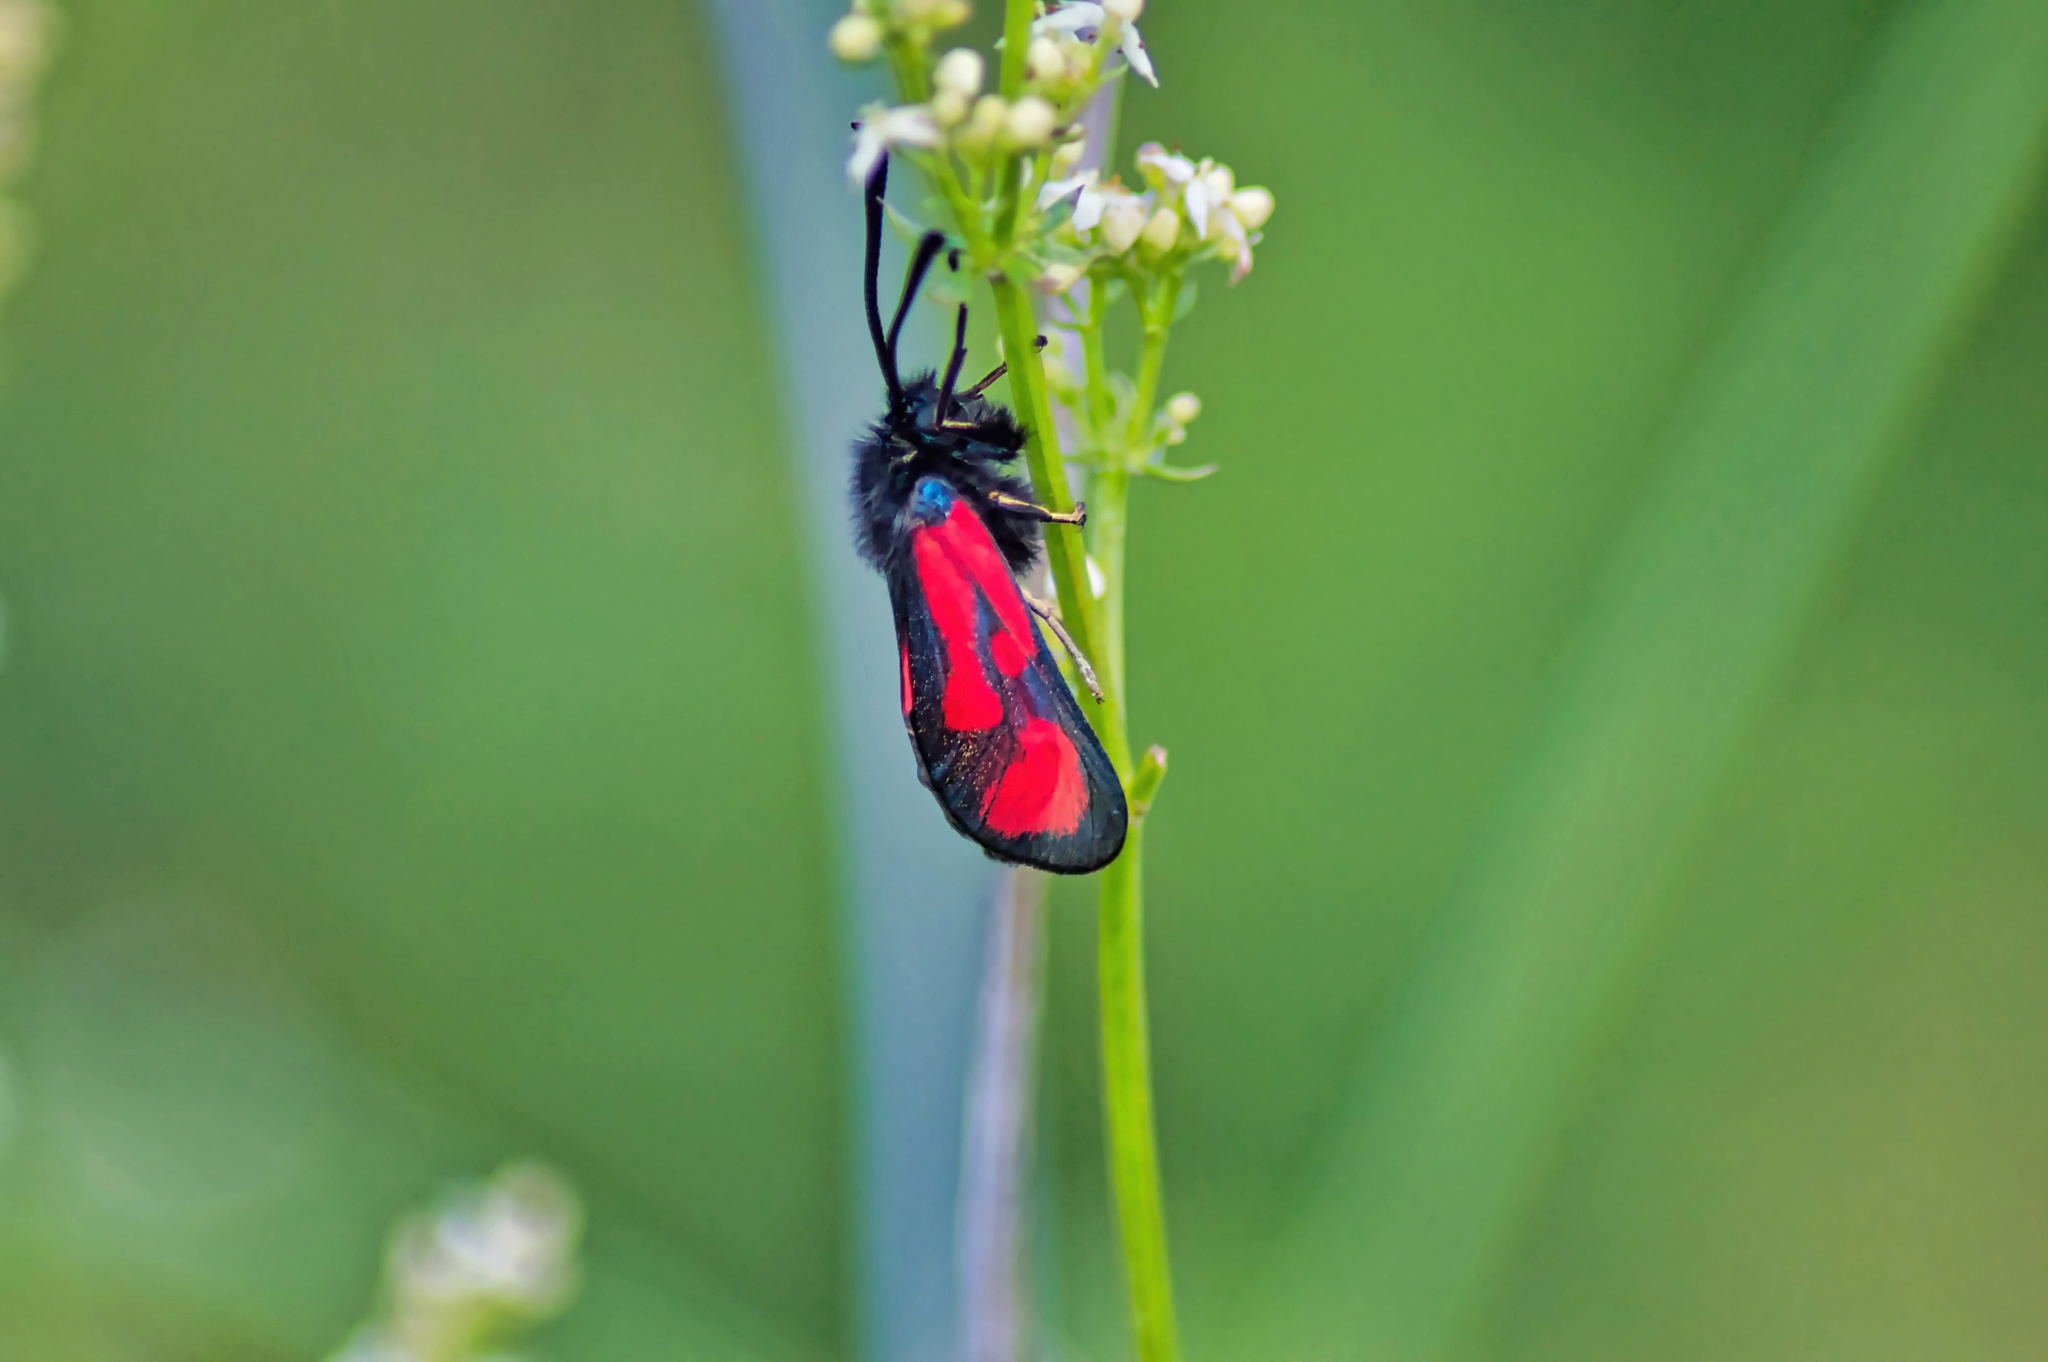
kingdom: Animalia
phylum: Arthropoda
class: Insecta
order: Lepidoptera
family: Zygaenidae
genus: Zygaena
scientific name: Zygaena loti
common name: Slender scotch burnet
